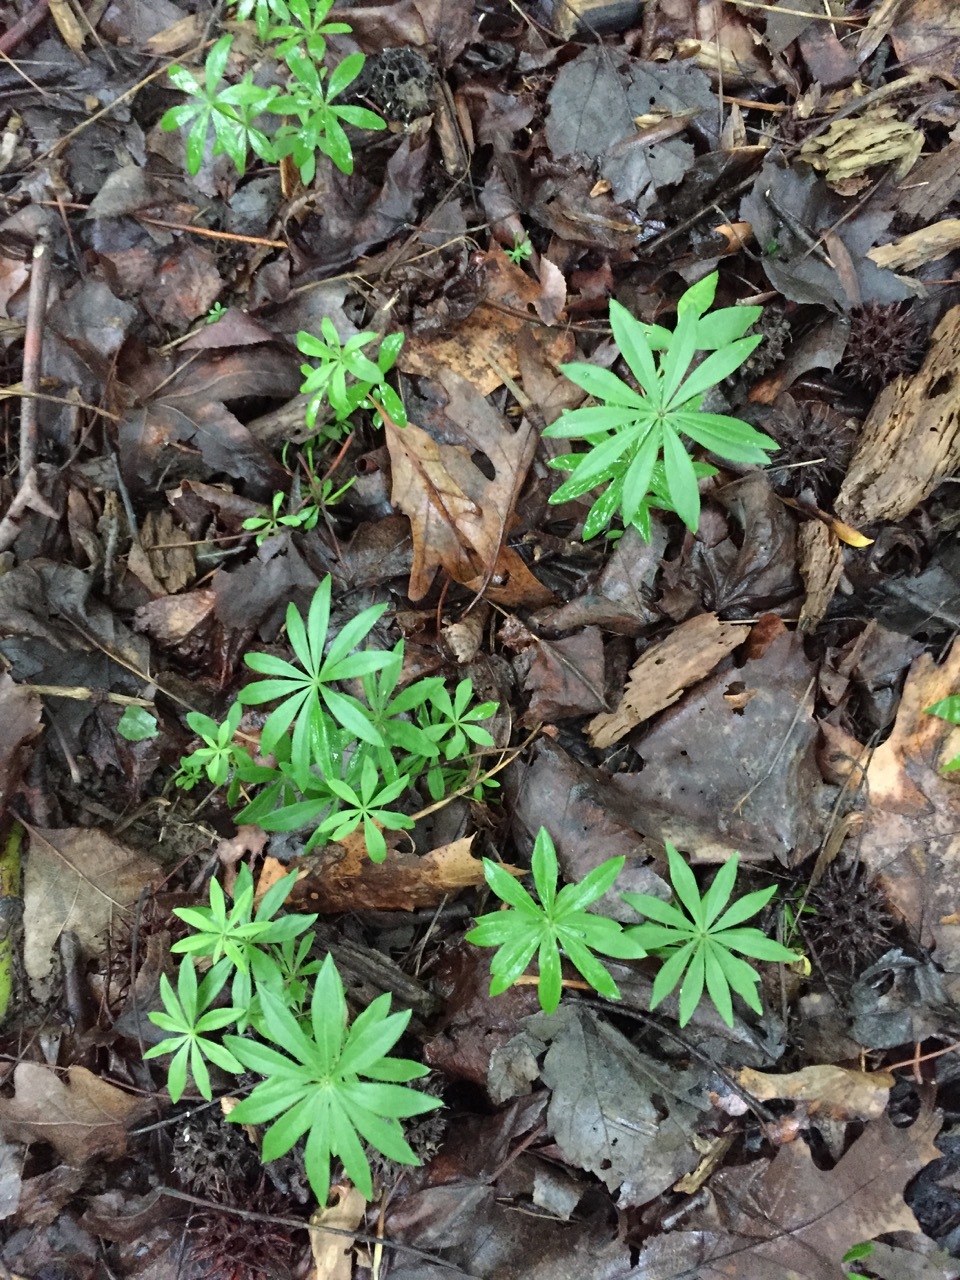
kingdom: Plantae
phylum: Tracheophyta
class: Liliopsida
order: Liliales
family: Liliaceae
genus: Medeola
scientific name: Medeola virginiana
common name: Indian cucumber-root
